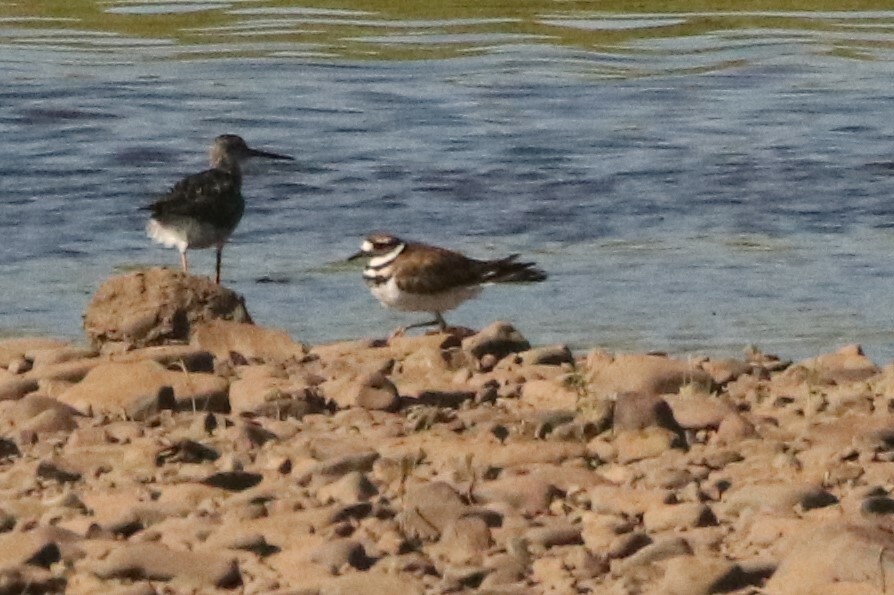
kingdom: Animalia
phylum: Chordata
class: Aves
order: Charadriiformes
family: Charadriidae
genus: Charadrius
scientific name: Charadrius vociferus
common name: Killdeer
